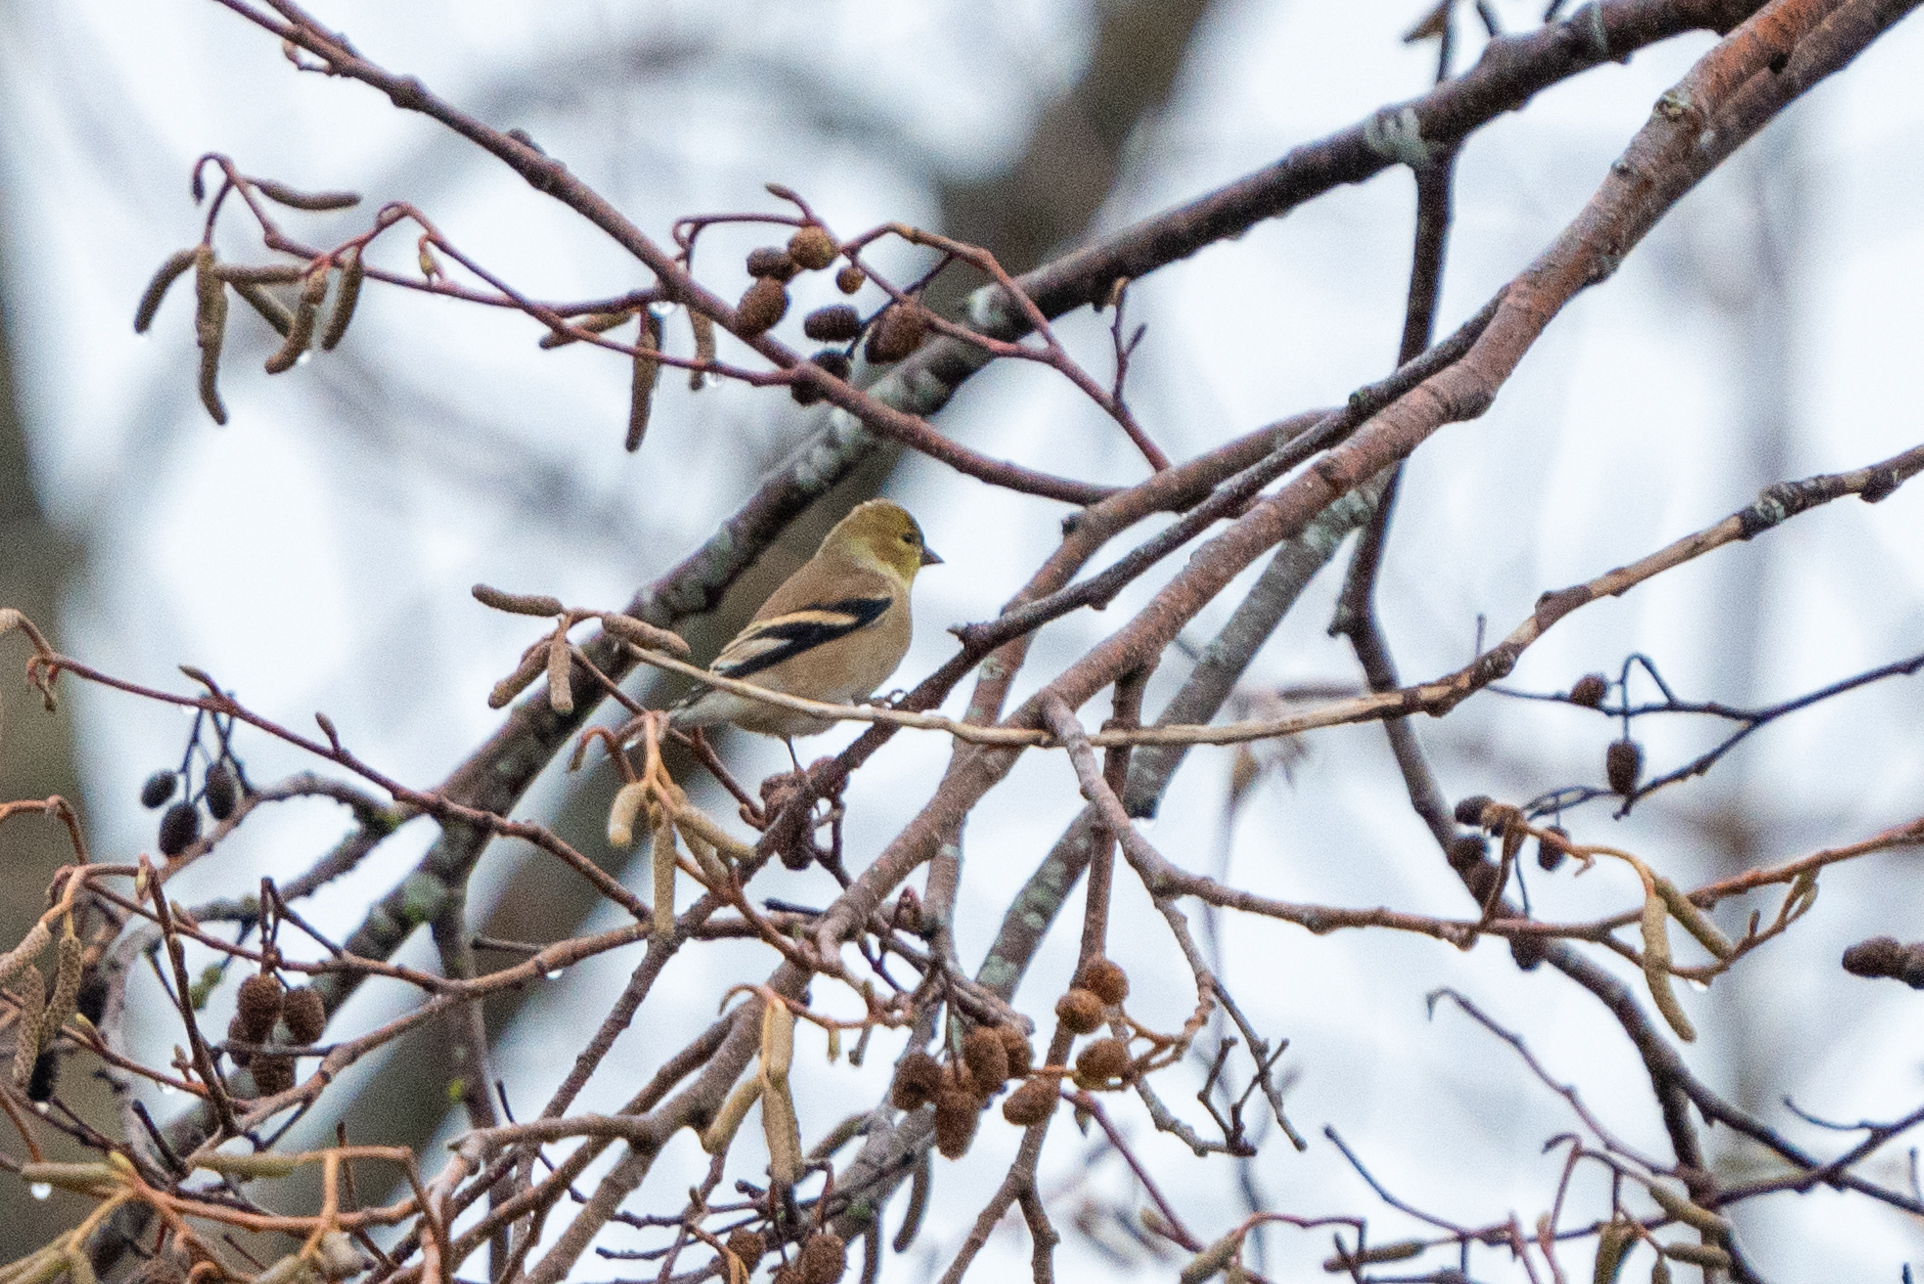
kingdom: Animalia
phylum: Chordata
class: Aves
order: Passeriformes
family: Fringillidae
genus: Spinus
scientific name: Spinus tristis
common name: American goldfinch
